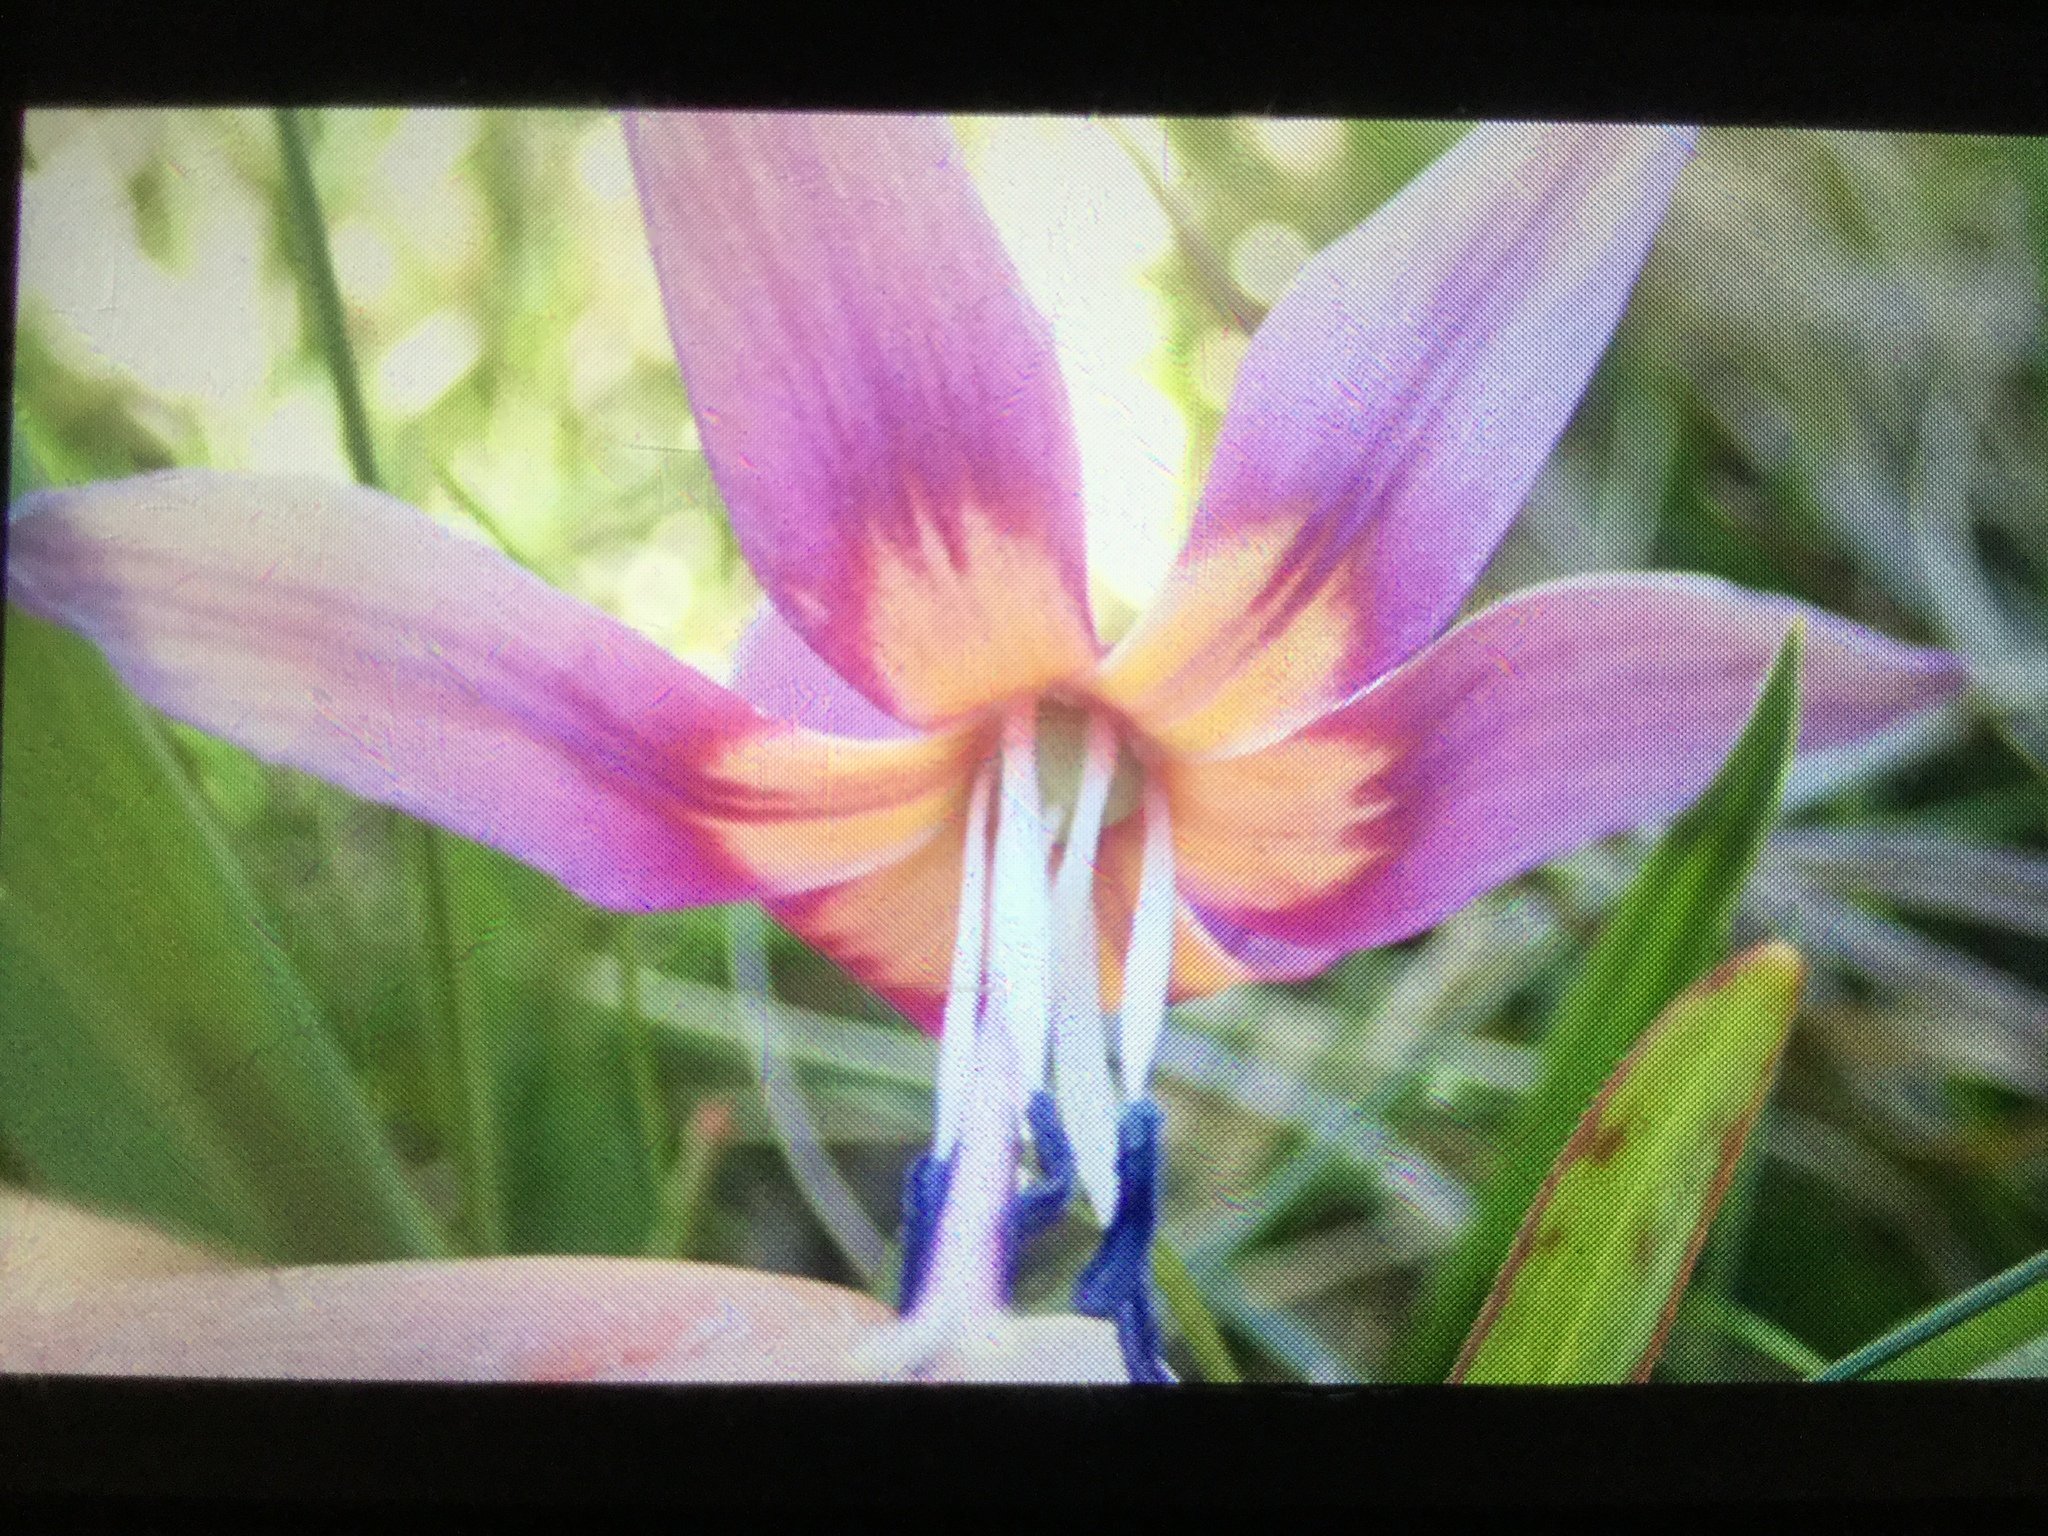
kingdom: Plantae
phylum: Tracheophyta
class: Liliopsida
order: Liliales
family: Liliaceae
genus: Erythronium
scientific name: Erythronium dens-canis
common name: Dog's-tooth-violet
